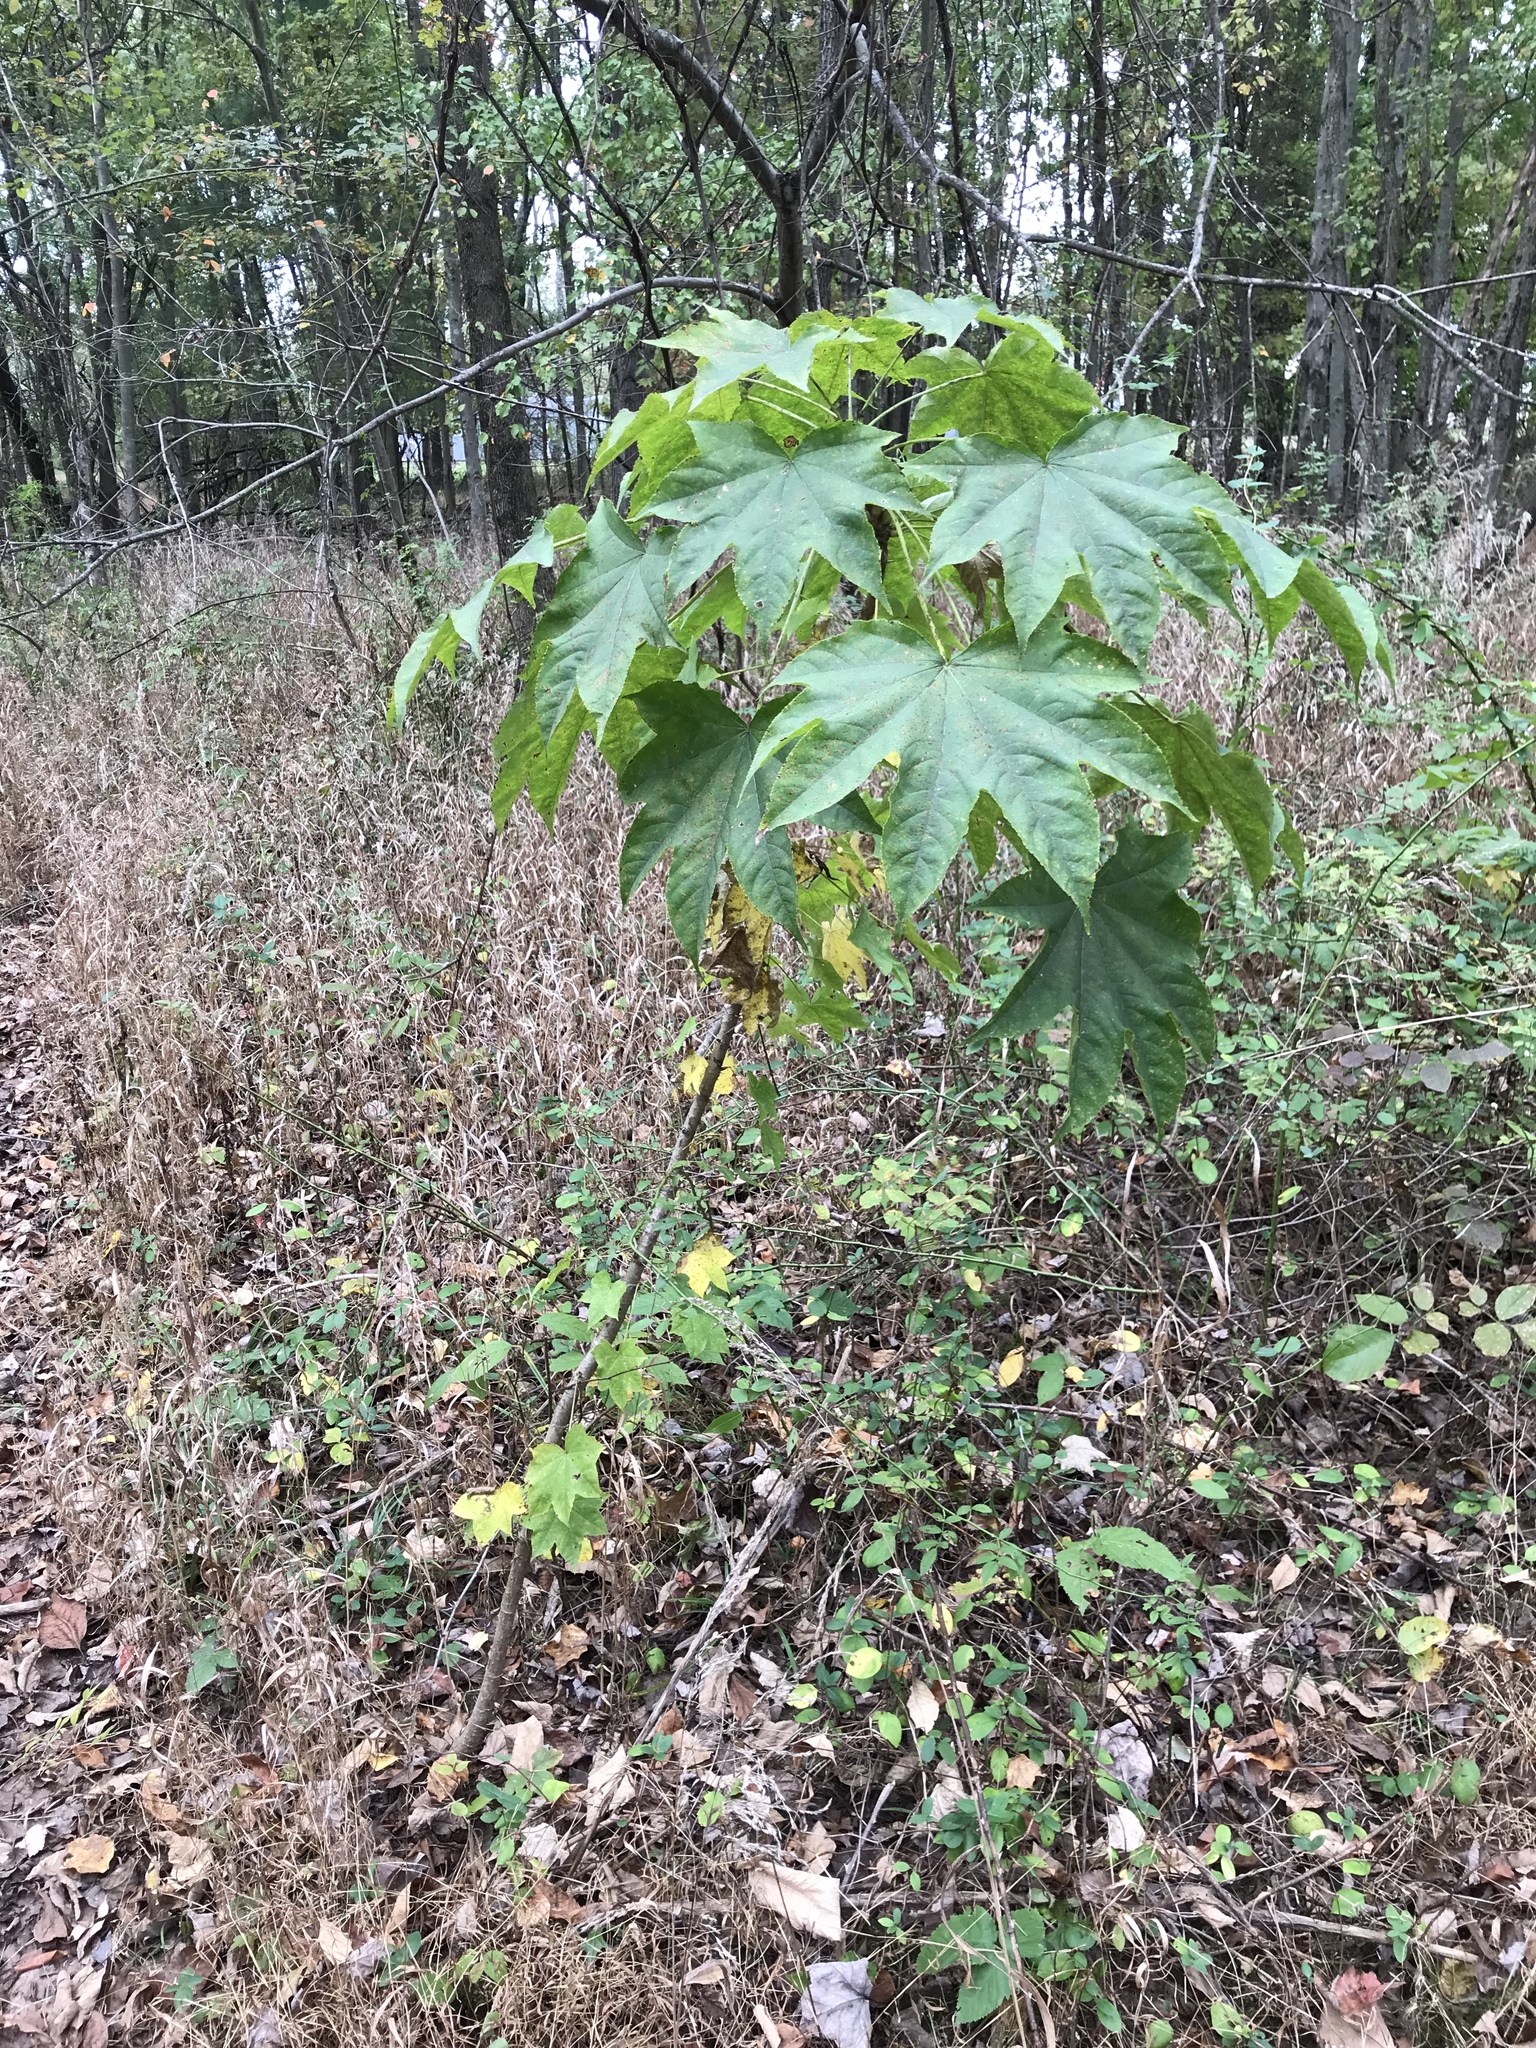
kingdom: Plantae
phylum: Tracheophyta
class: Magnoliopsida
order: Apiales
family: Araliaceae
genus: Kalopanax
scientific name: Kalopanax septemlobus
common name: Castor aralia
